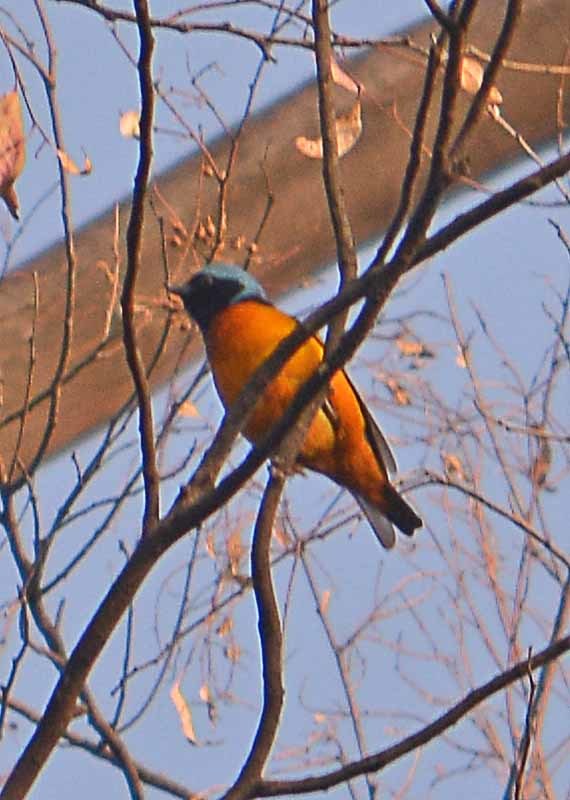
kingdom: Animalia
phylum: Chordata
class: Aves
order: Passeriformes
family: Fringillidae
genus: Euphonia
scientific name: Euphonia elegantissima
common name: Elegant euphonia
